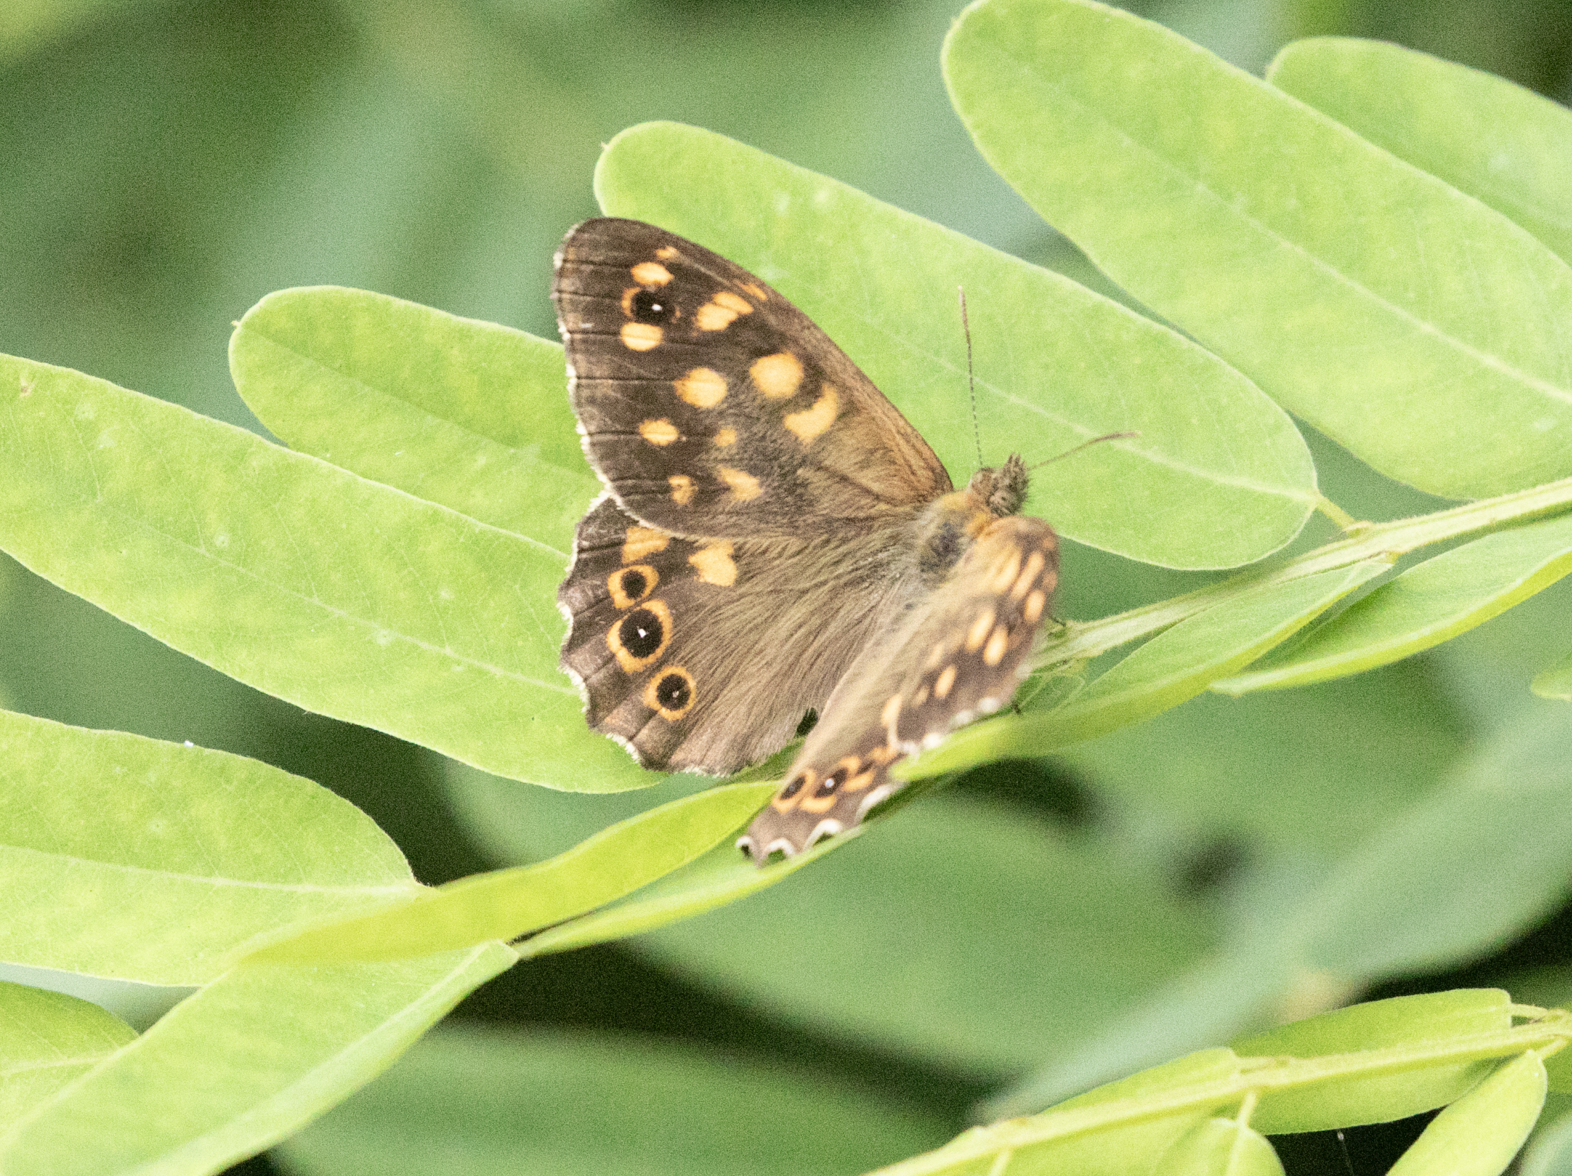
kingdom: Animalia
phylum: Arthropoda
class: Insecta
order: Lepidoptera
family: Nymphalidae
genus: Pararge
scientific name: Pararge aegeria
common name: Speckled wood
